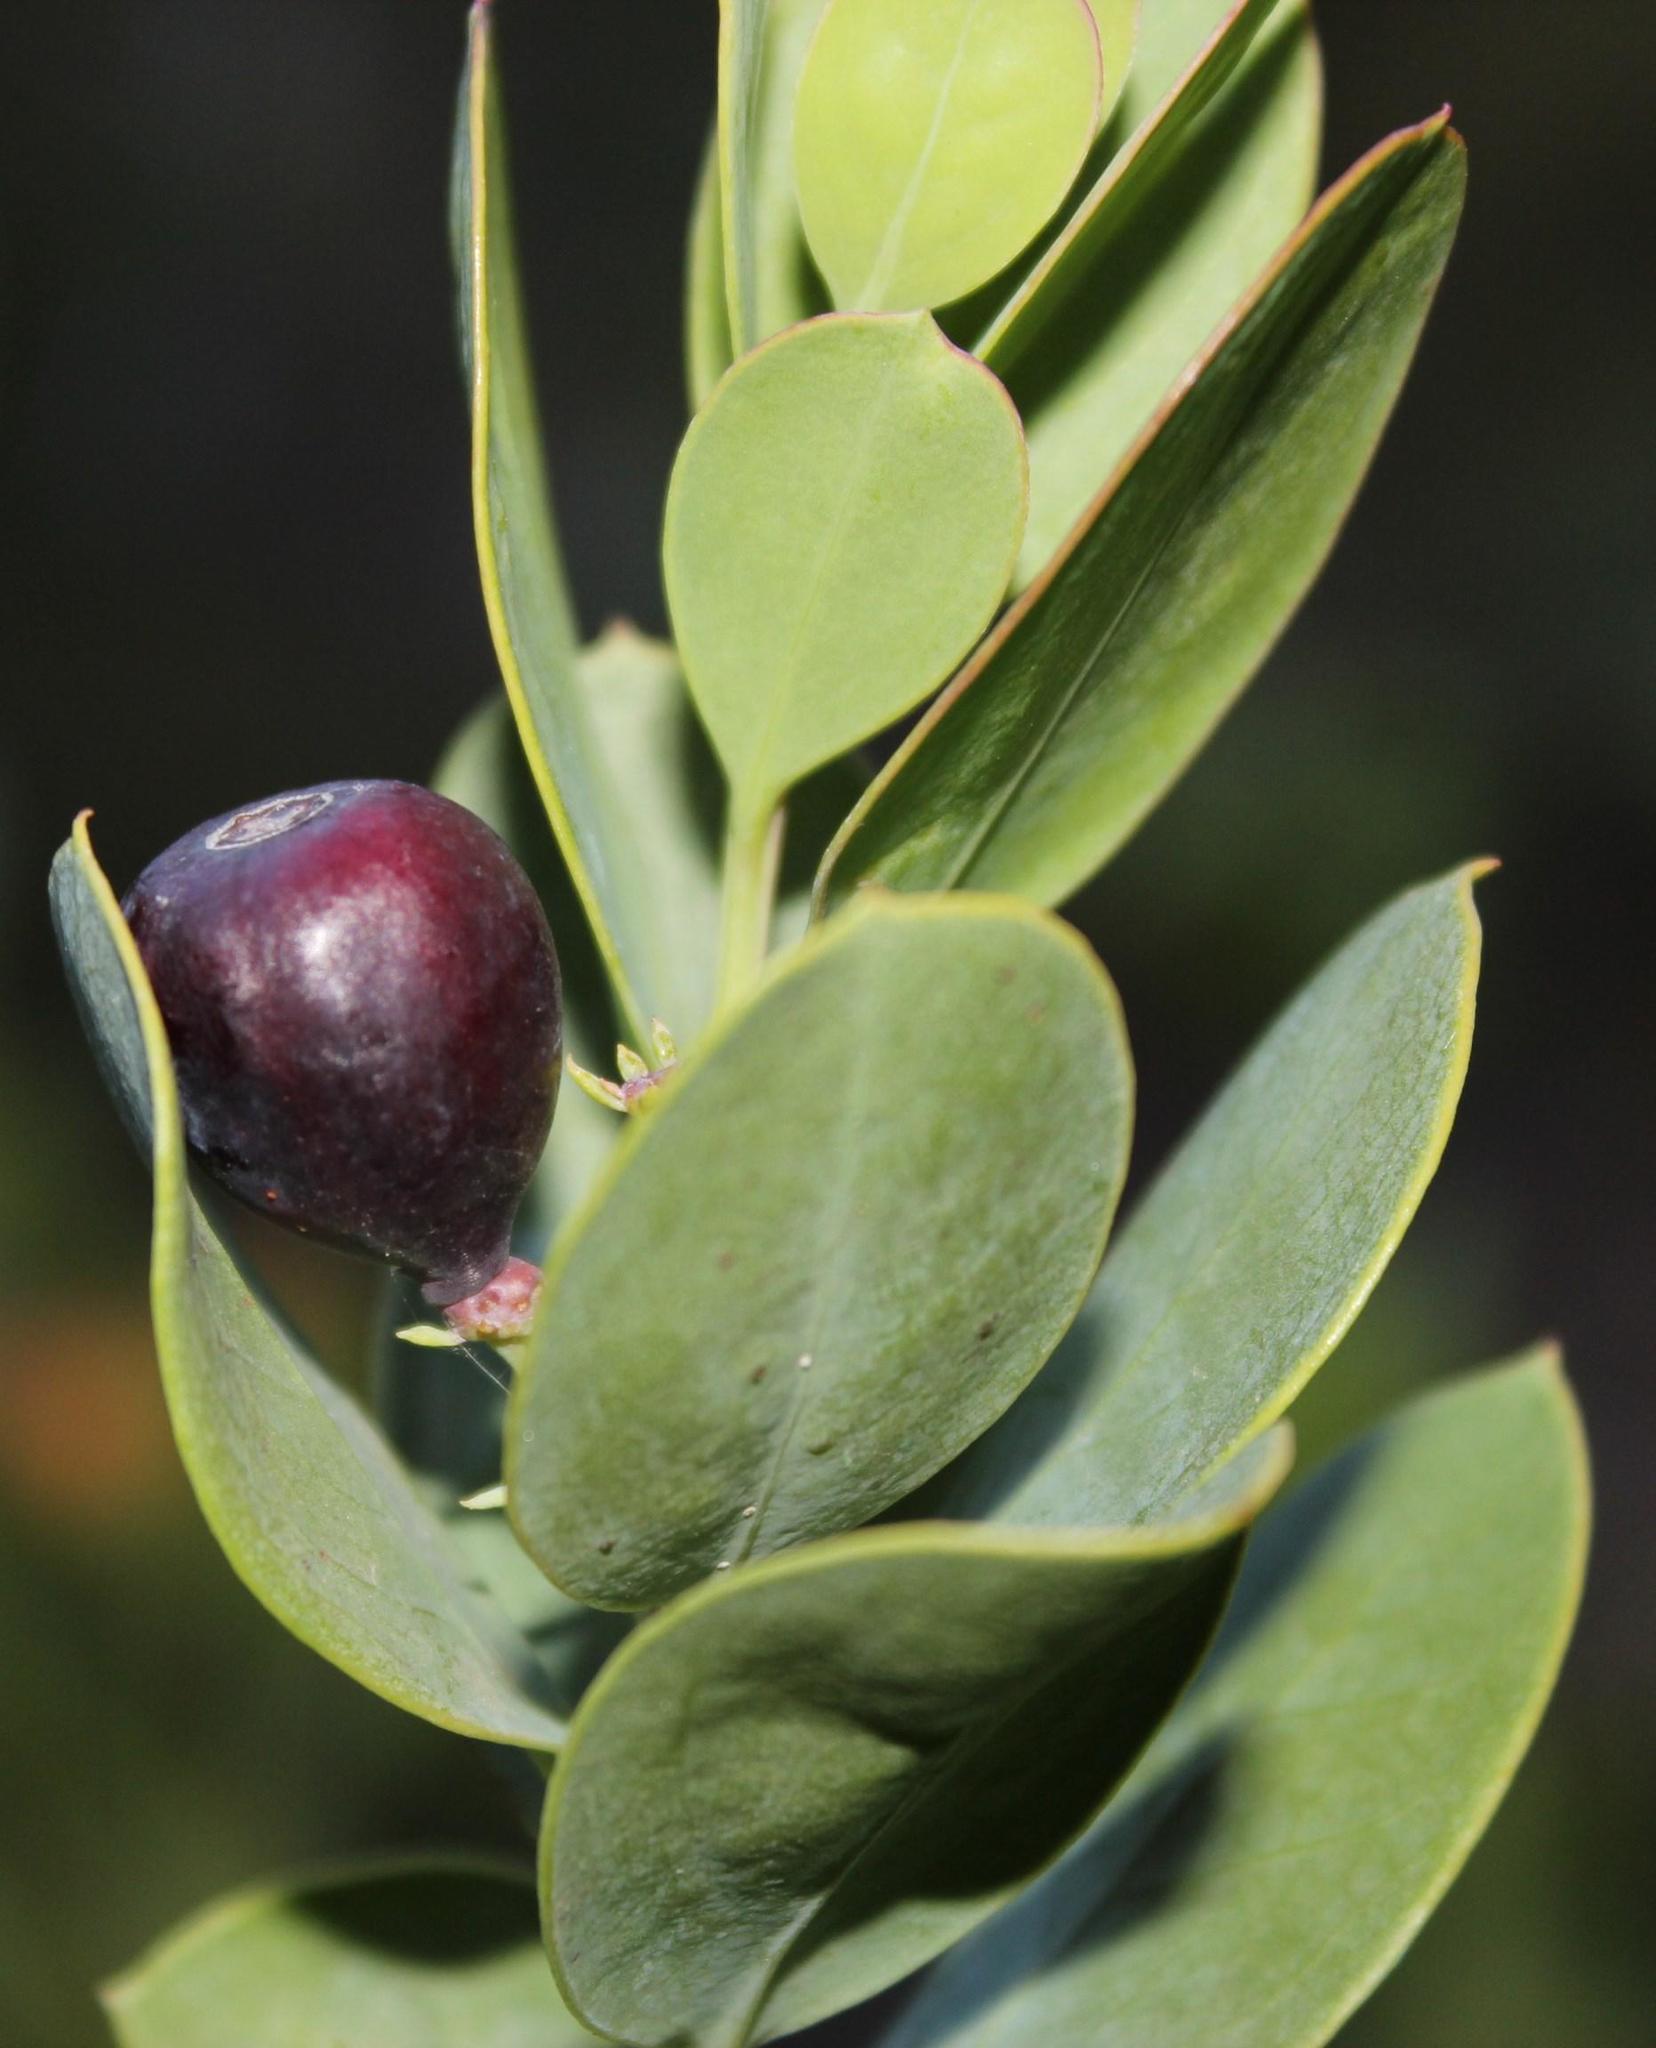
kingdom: Plantae
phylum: Tracheophyta
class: Magnoliopsida
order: Santalales
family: Santalaceae
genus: Osyris
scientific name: Osyris compressa
